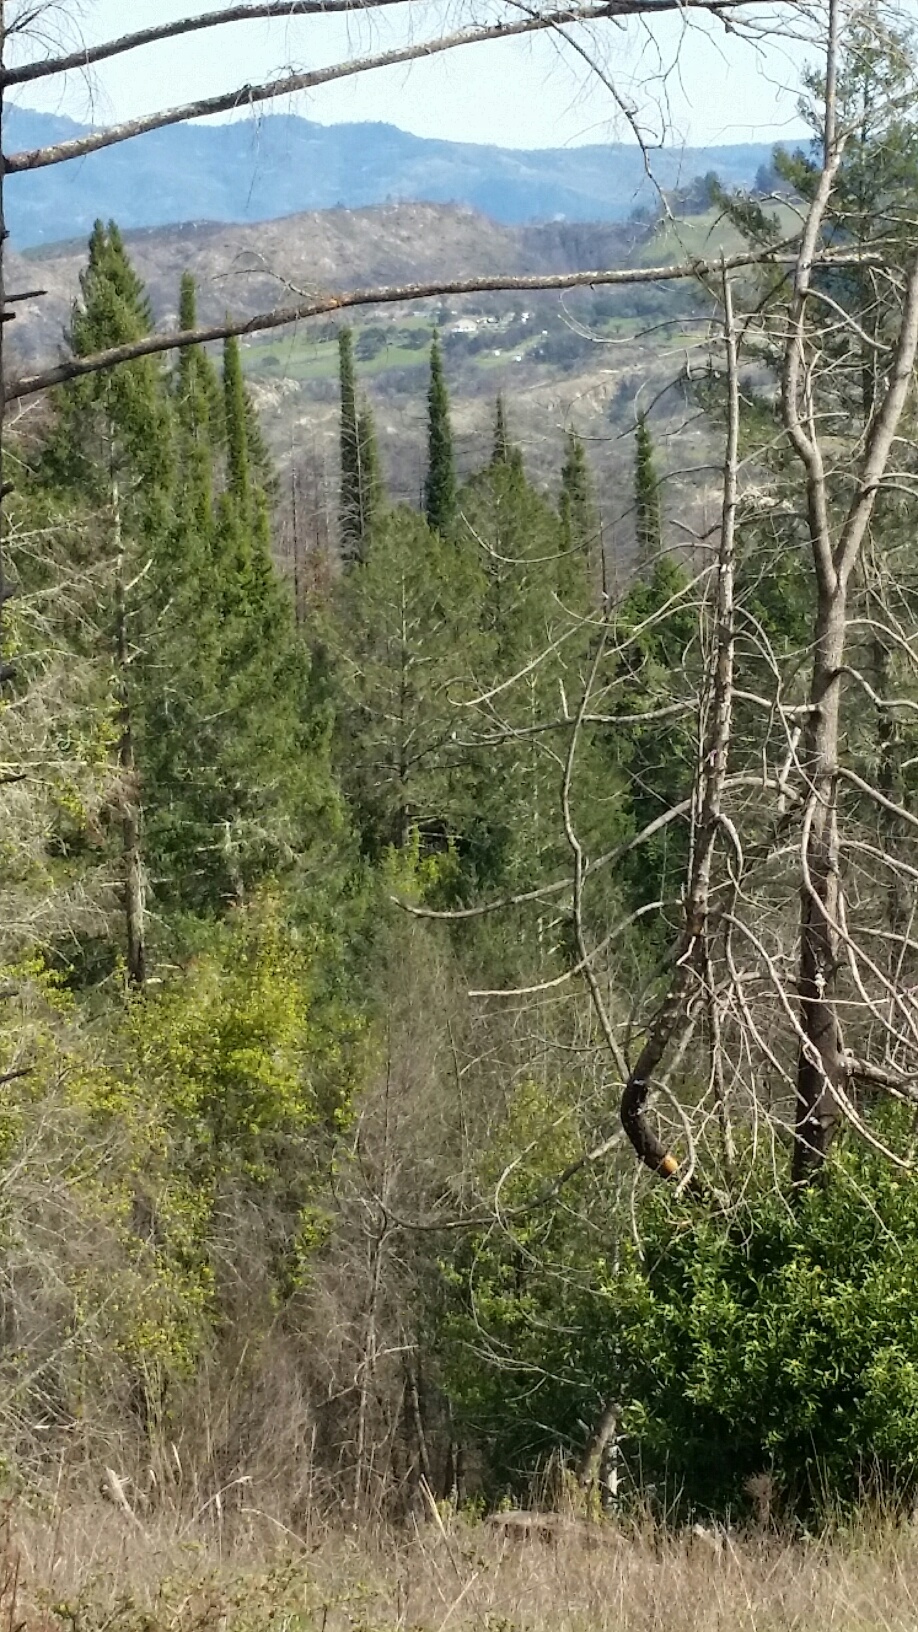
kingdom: Plantae
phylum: Tracheophyta
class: Pinopsida
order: Pinales
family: Cupressaceae
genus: Sequoia
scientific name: Sequoia sempervirens
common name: Coast redwood
